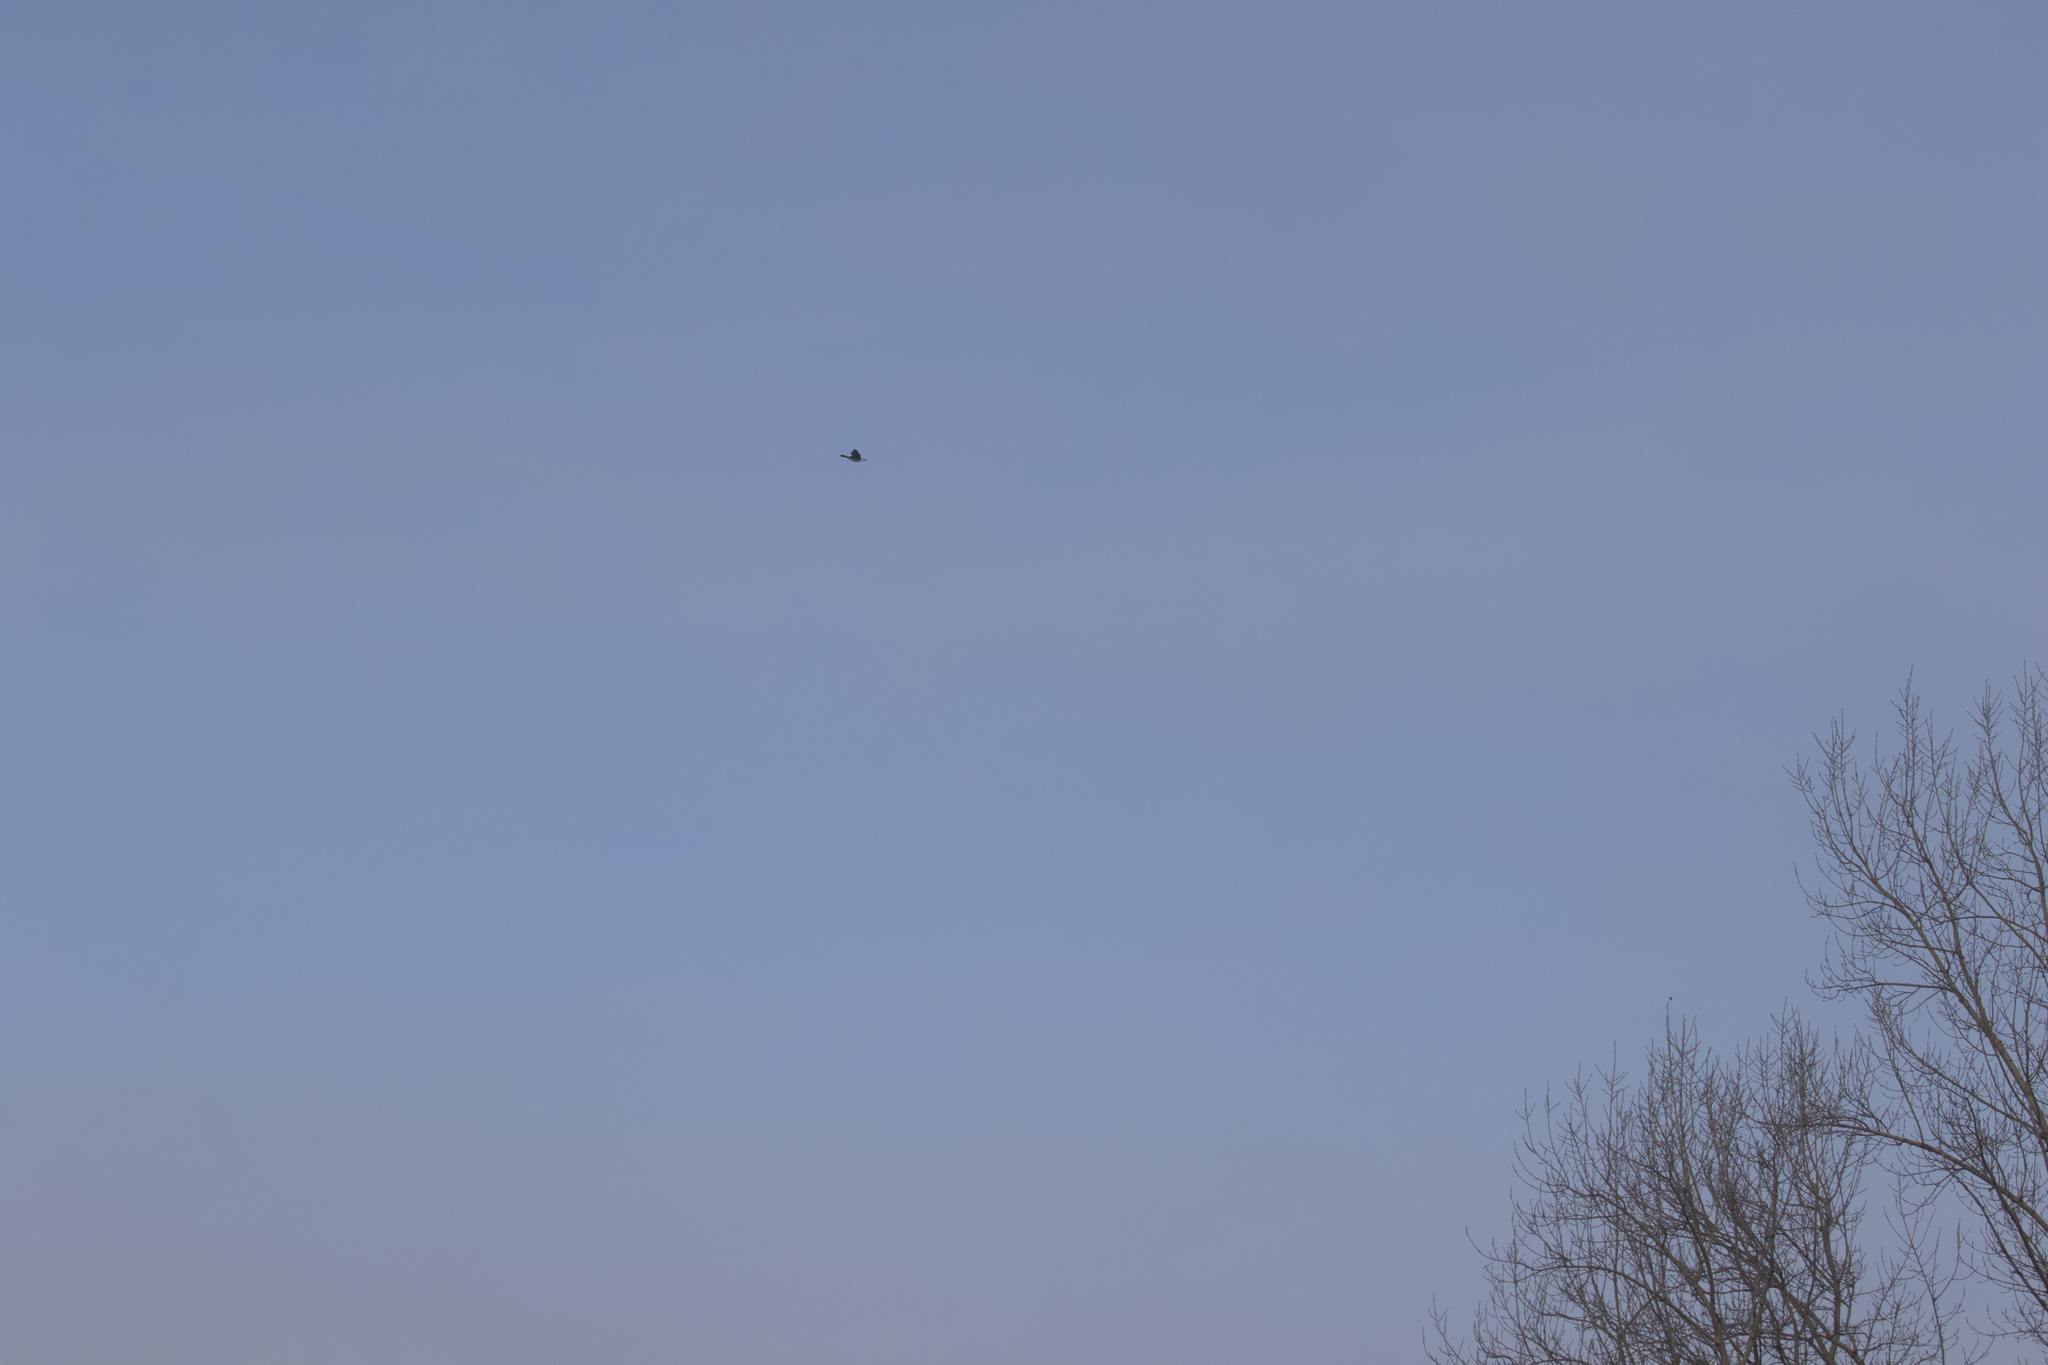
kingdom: Animalia
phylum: Chordata
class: Aves
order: Anseriformes
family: Anatidae
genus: Anser
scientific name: Anser fabalis
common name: Bean goose
